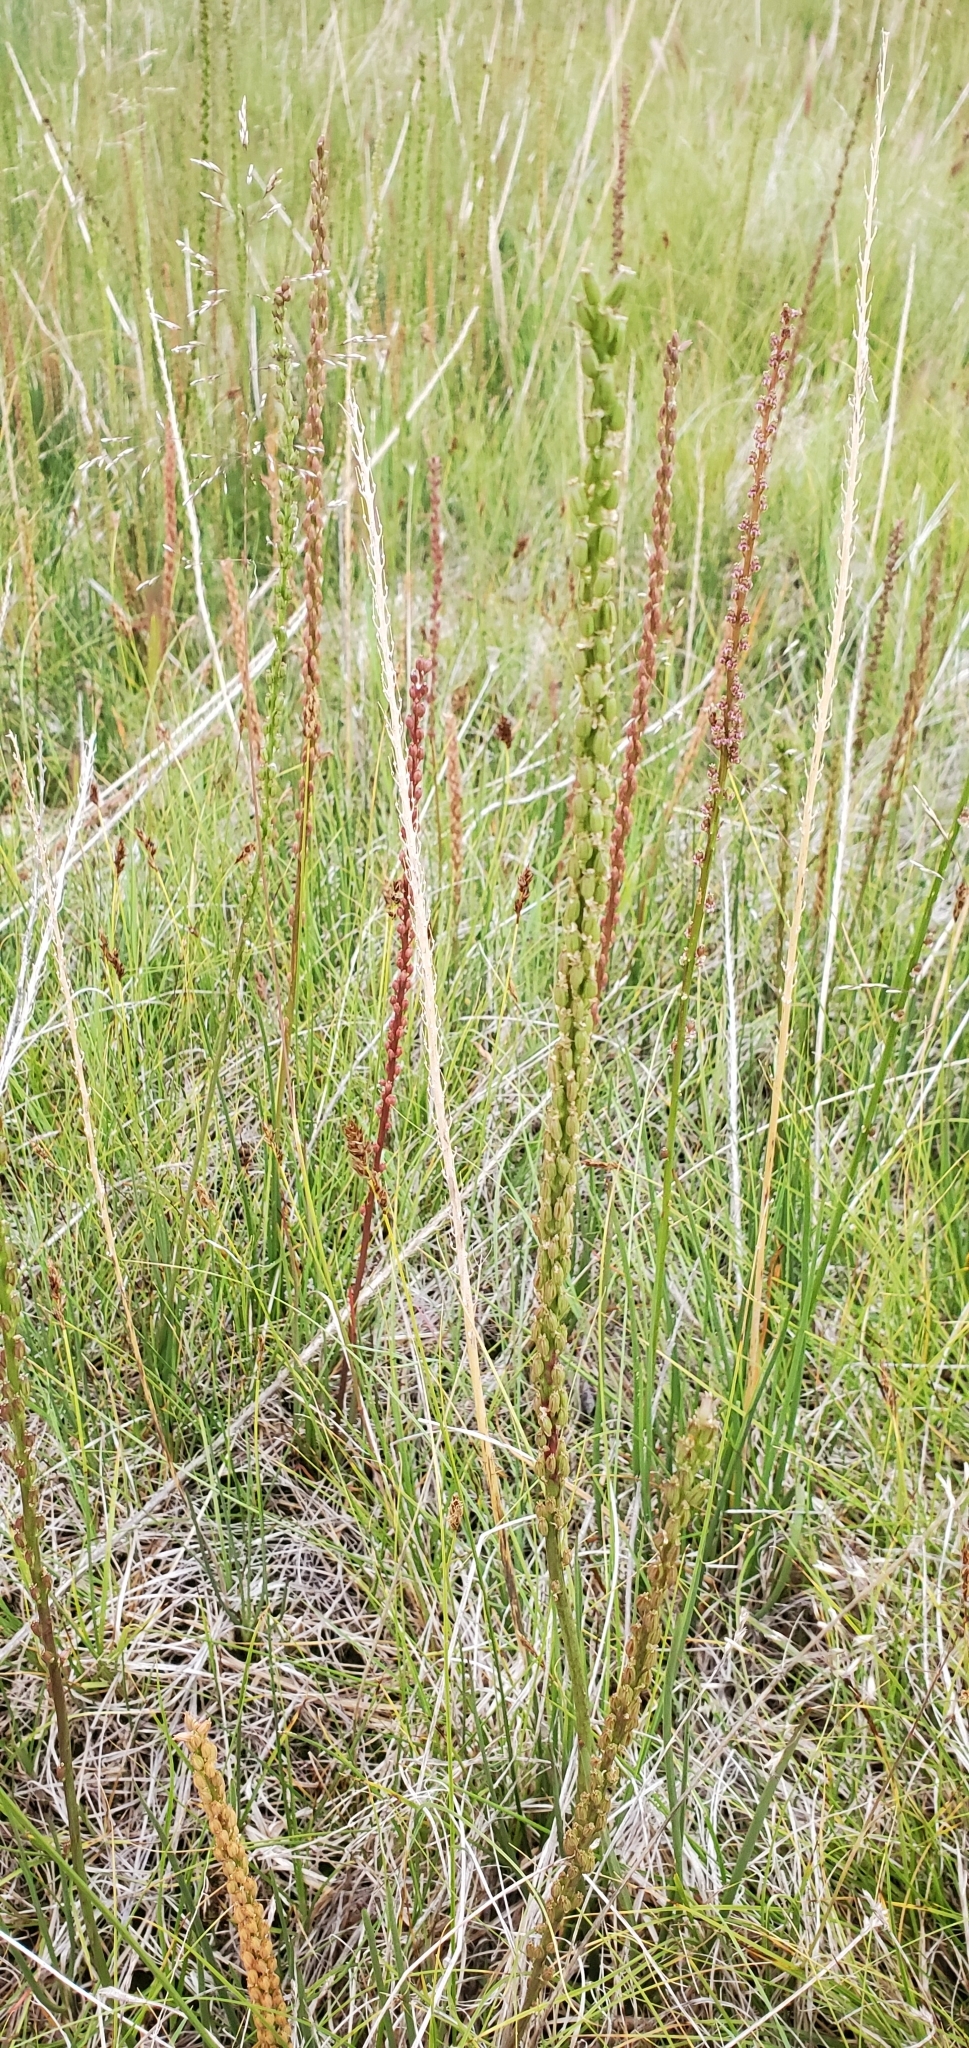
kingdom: Plantae
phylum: Tracheophyta
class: Liliopsida
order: Alismatales
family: Juncaginaceae
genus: Triglochin
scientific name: Triglochin maritima
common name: Sea arrowgrass
